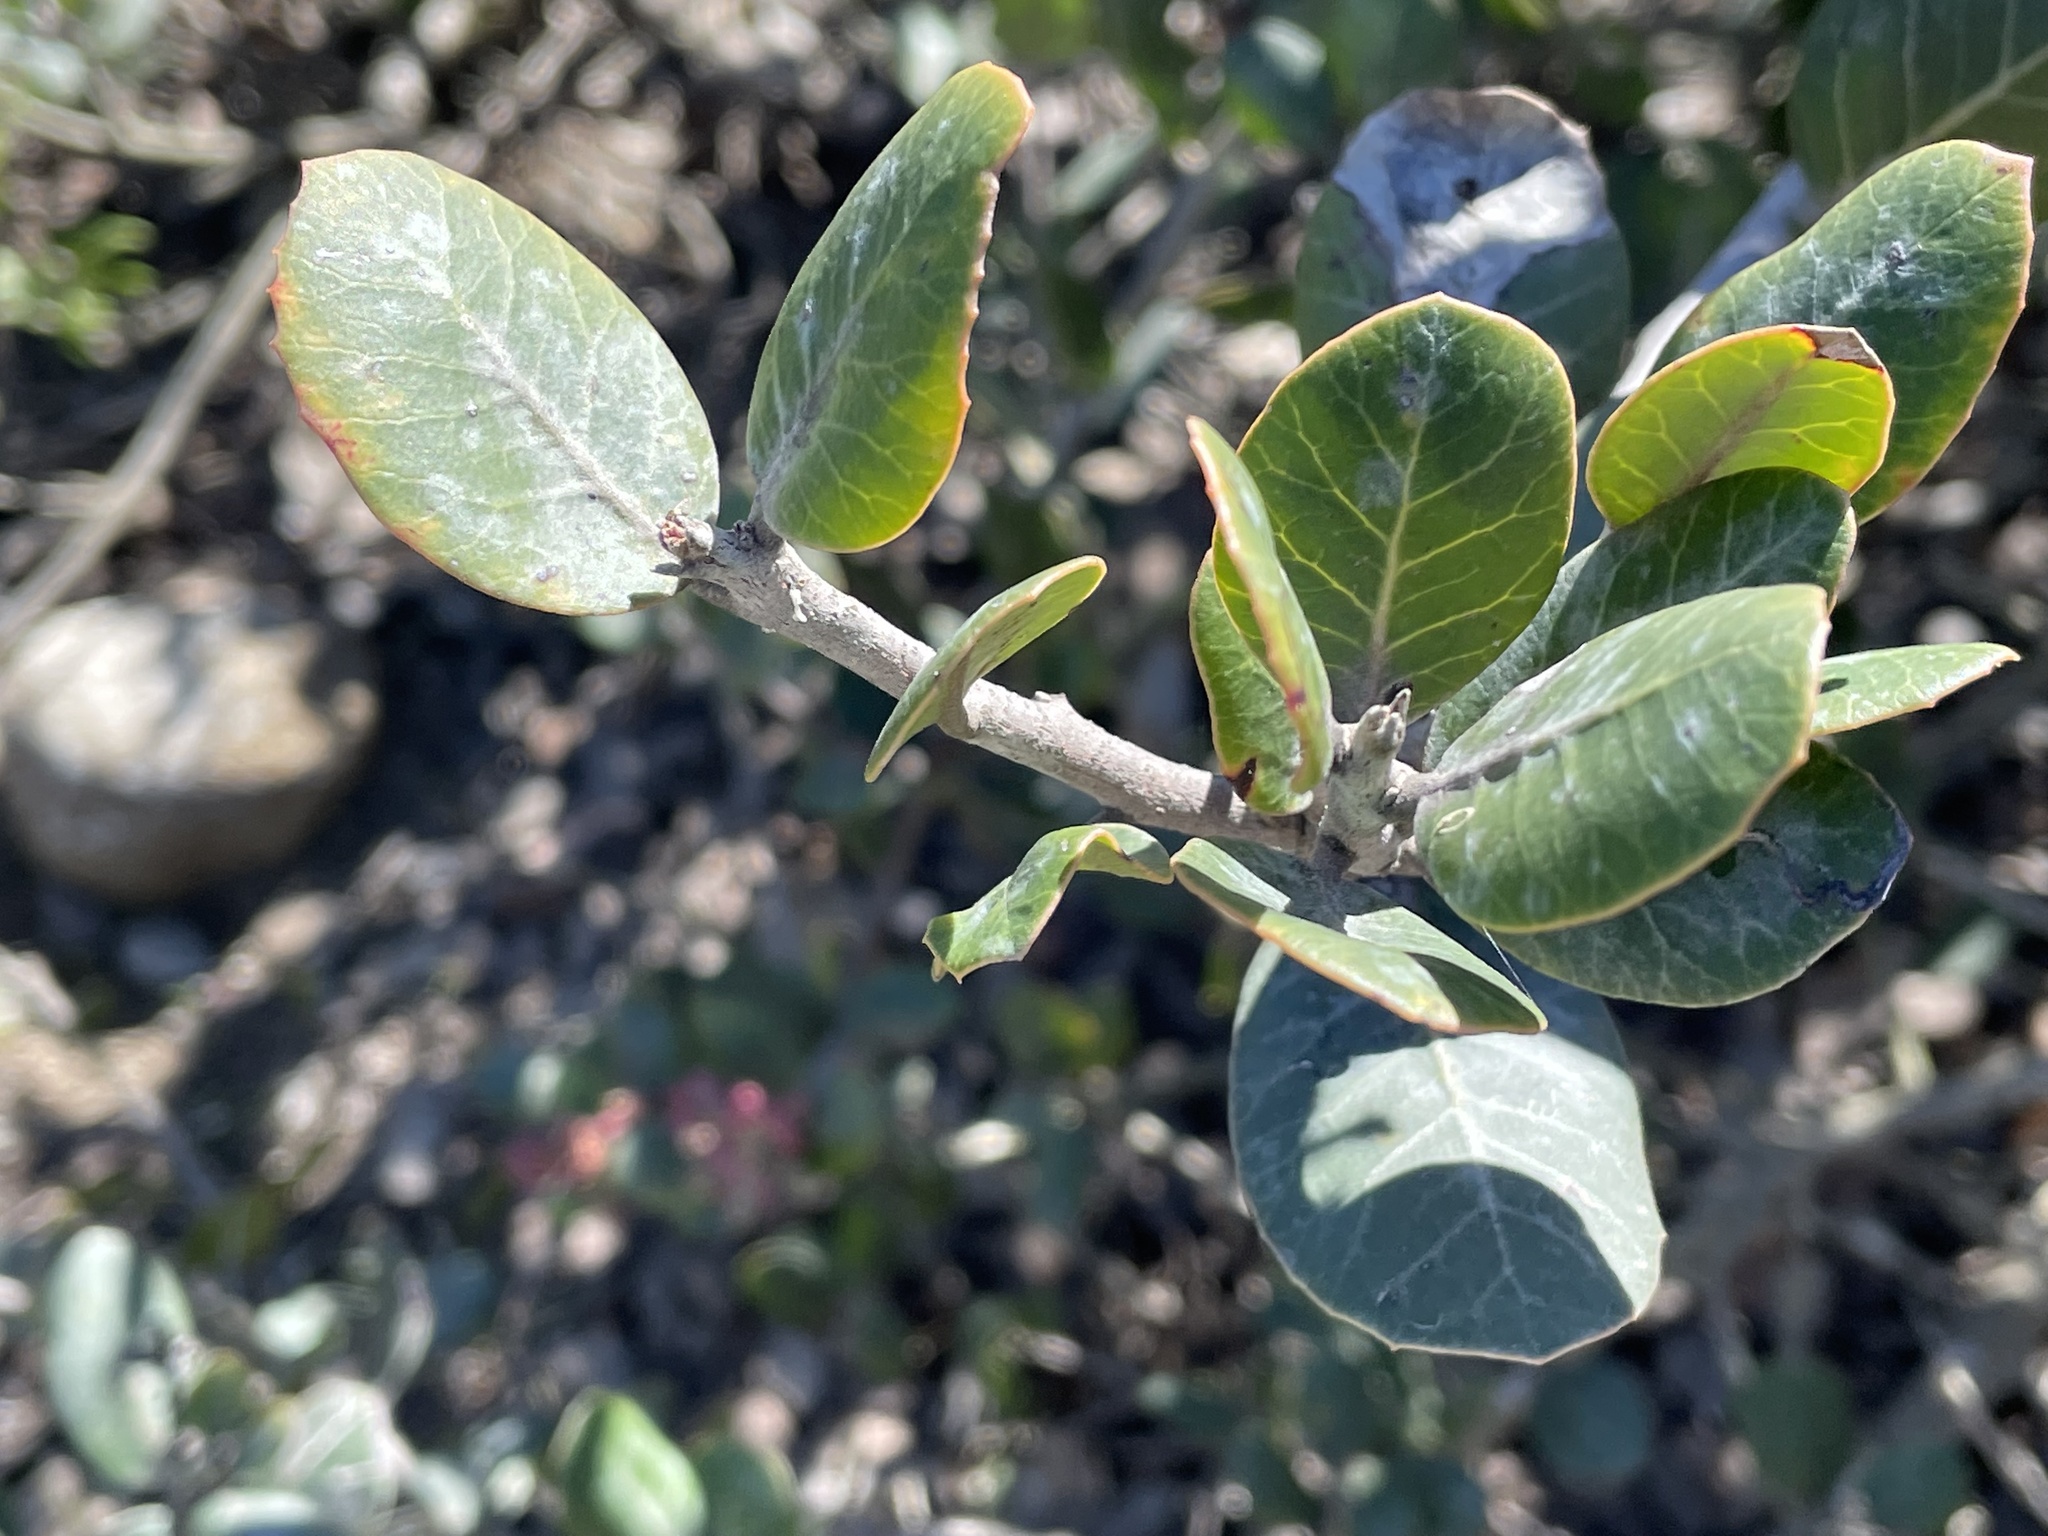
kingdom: Plantae
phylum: Tracheophyta
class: Magnoliopsida
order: Sapindales
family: Anacardiaceae
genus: Rhus
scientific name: Rhus integrifolia
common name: Lemonade sumac
